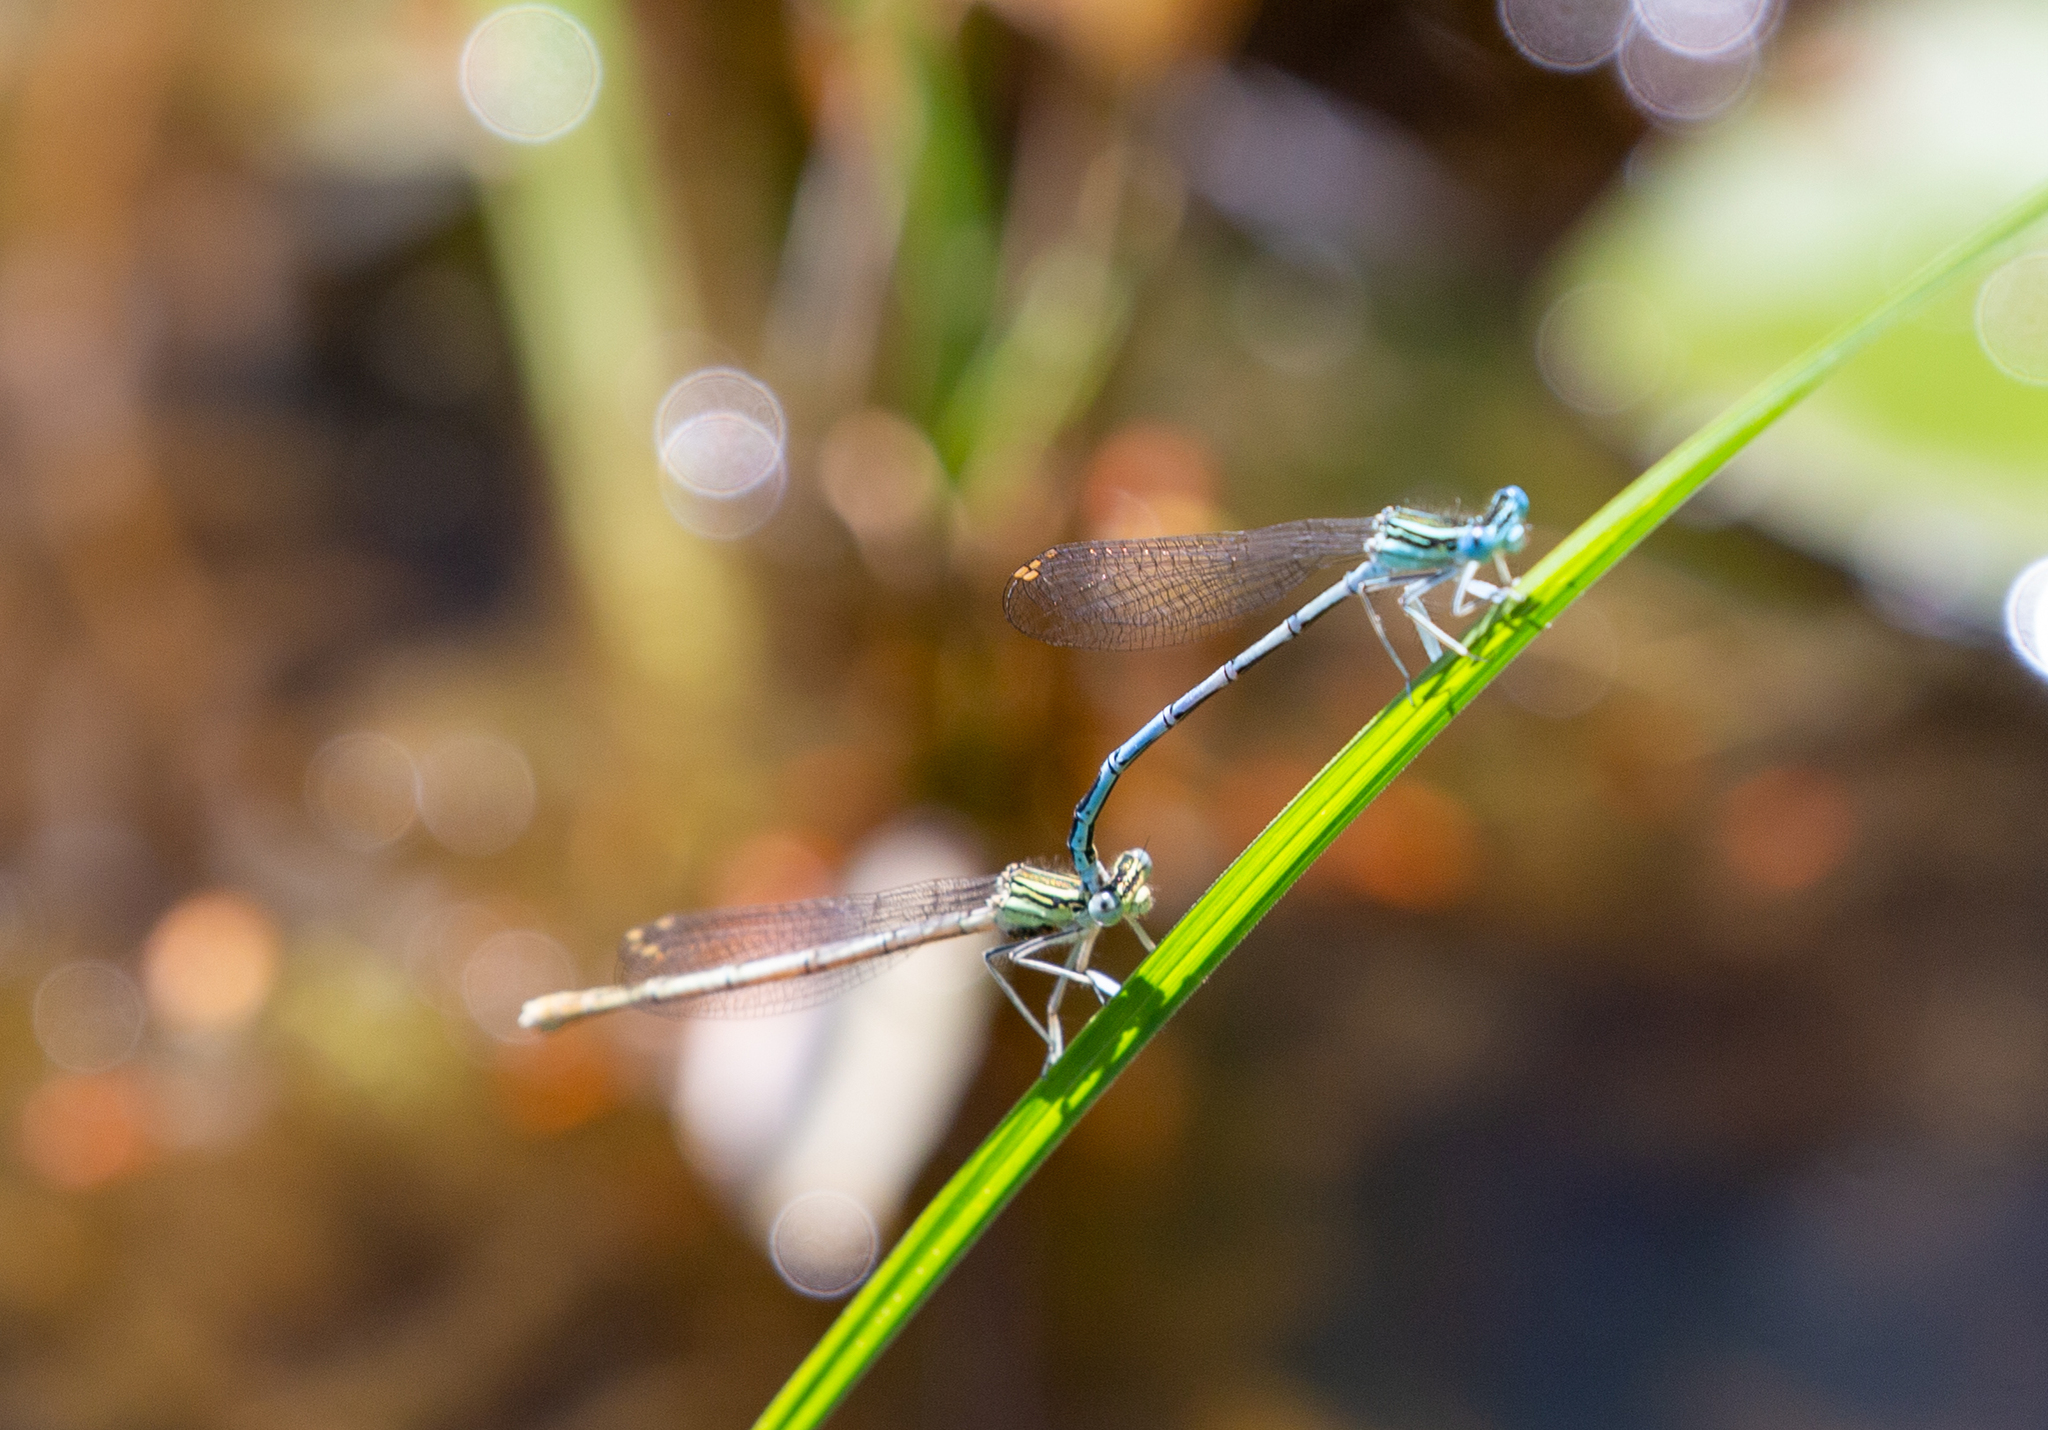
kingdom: Animalia
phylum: Arthropoda
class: Insecta
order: Odonata
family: Platycnemididae
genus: Platycnemis
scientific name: Platycnemis pennipes
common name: White-legged damselfly
